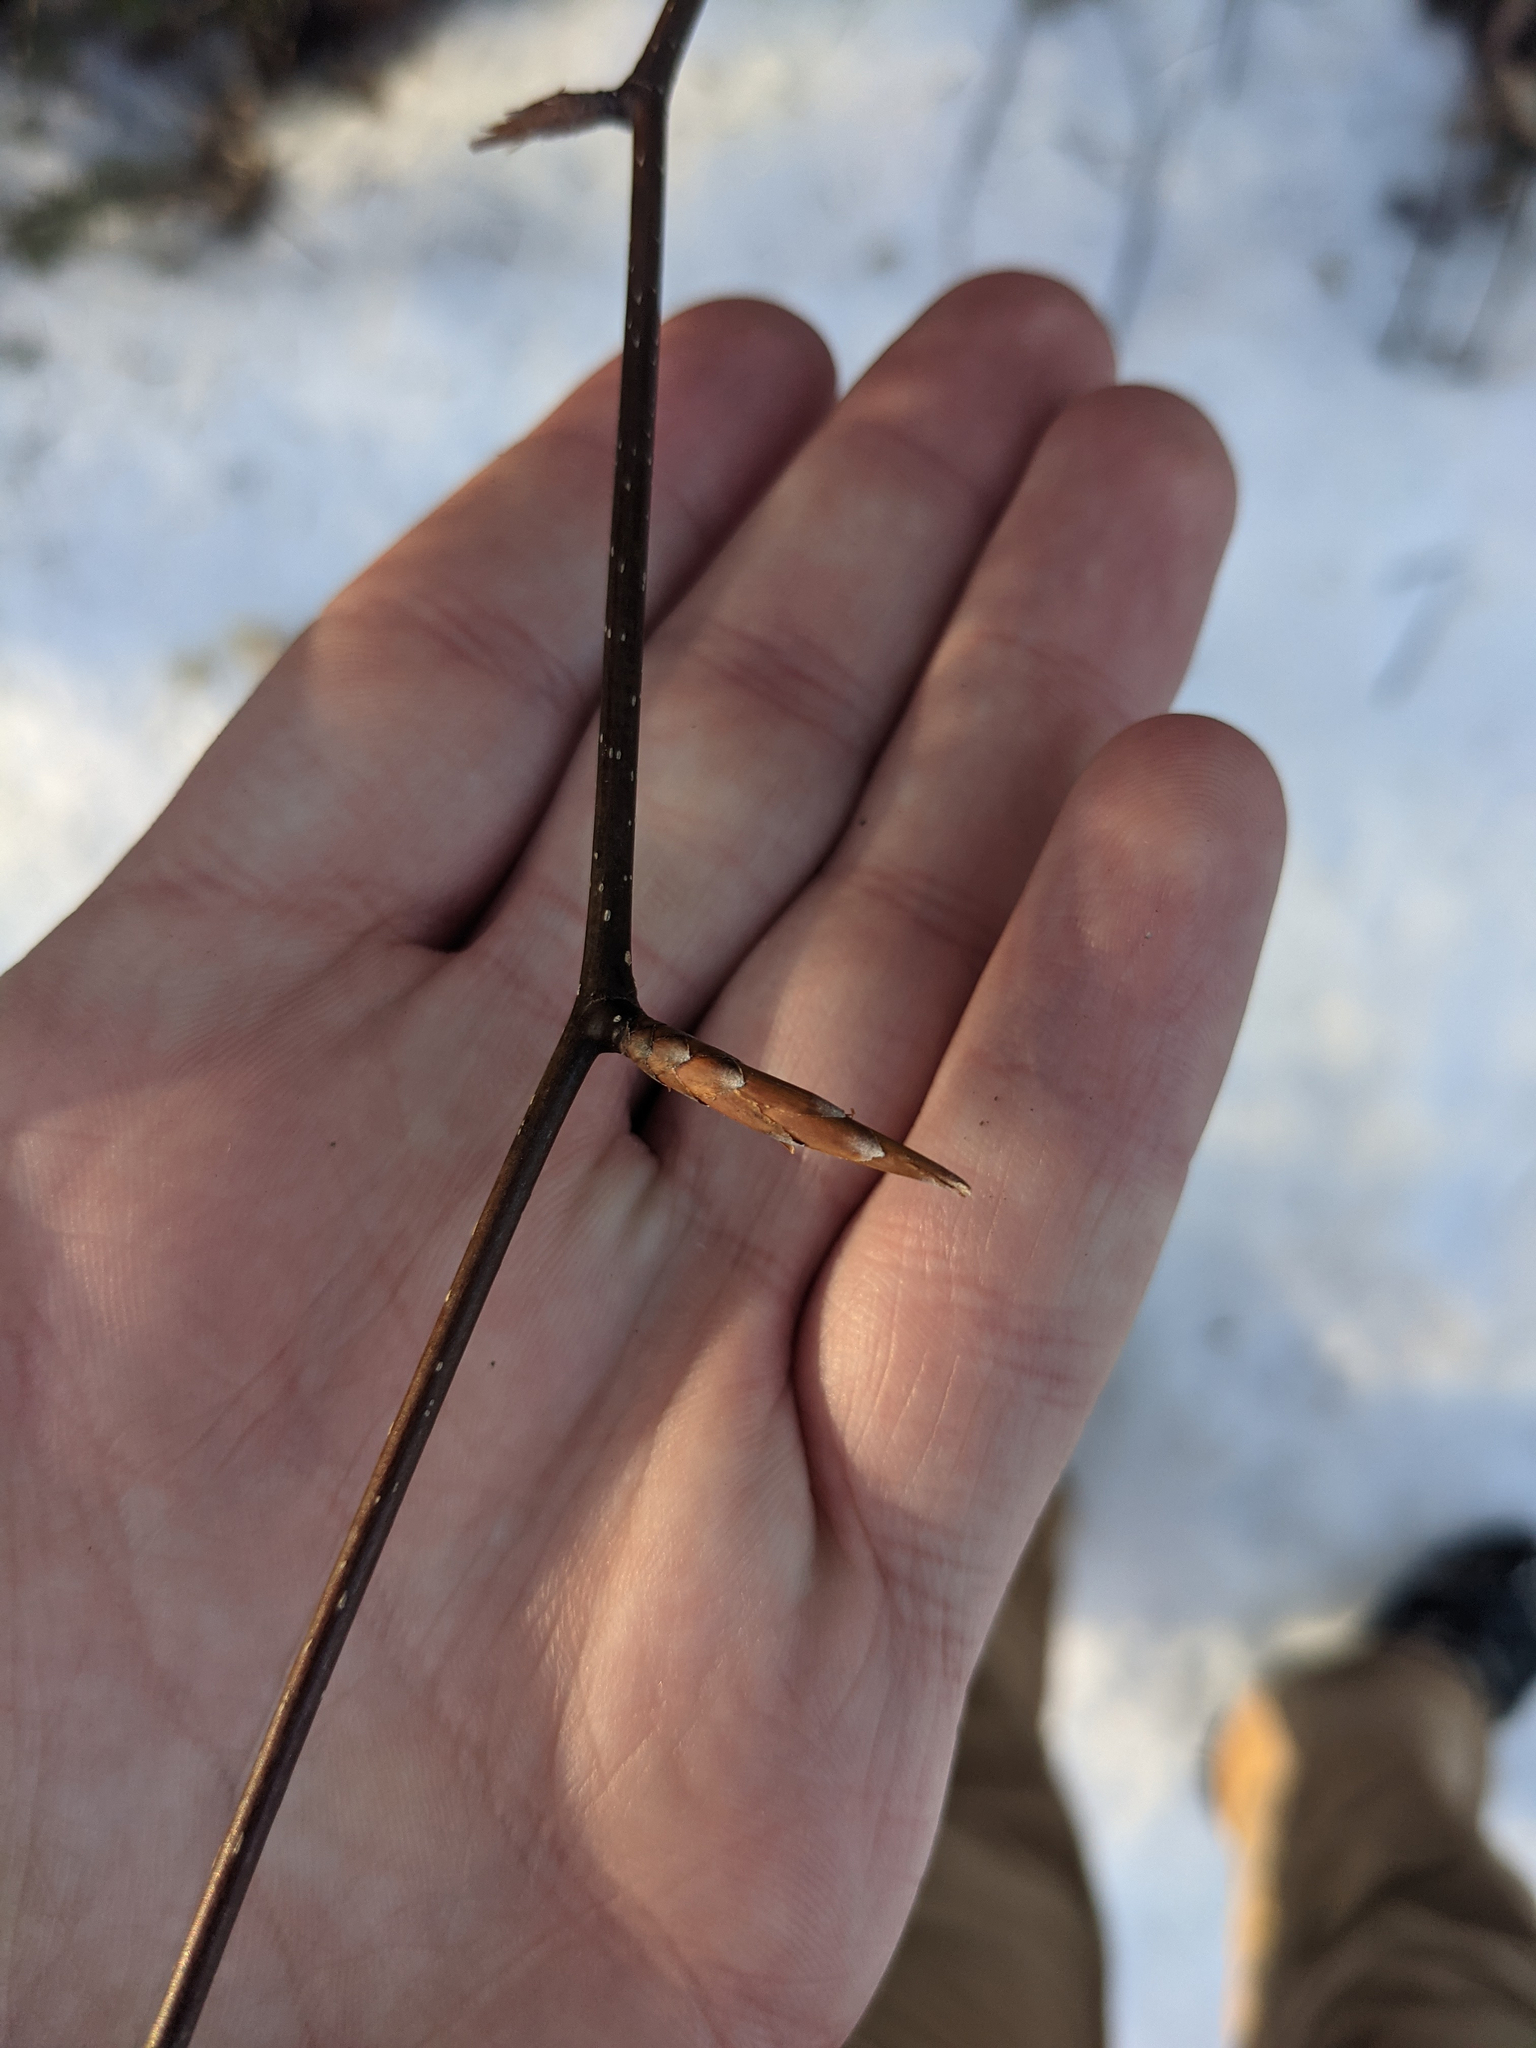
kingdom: Plantae
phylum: Tracheophyta
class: Magnoliopsida
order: Fagales
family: Fagaceae
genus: Fagus
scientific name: Fagus grandifolia
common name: American beech
